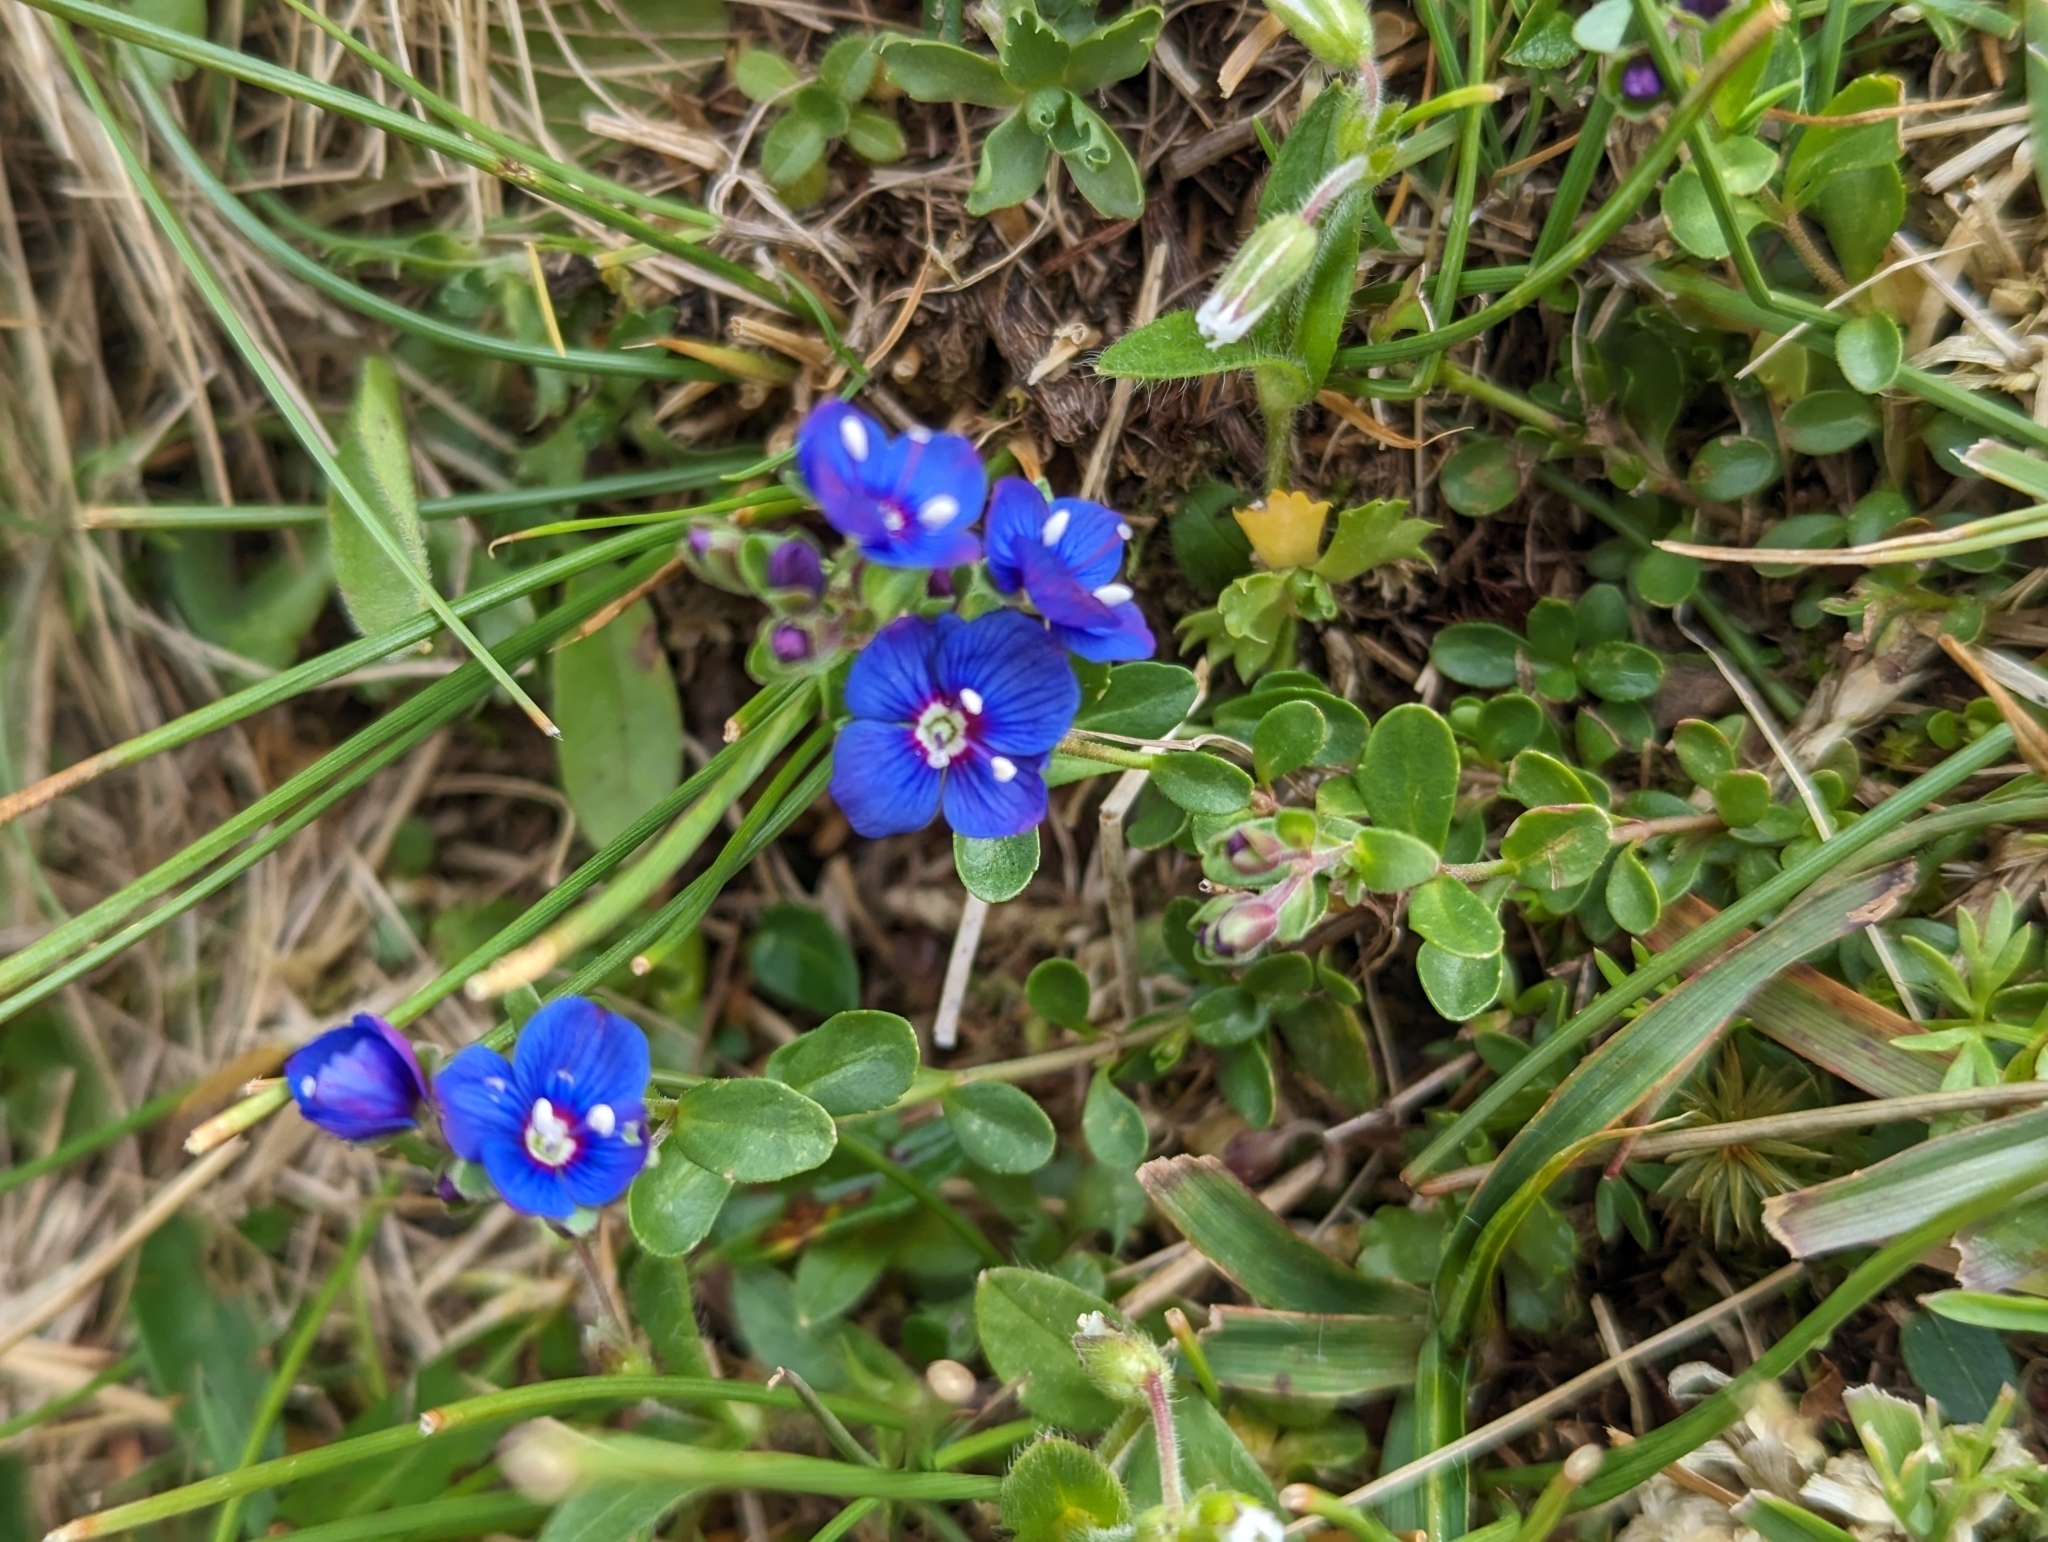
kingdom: Plantae
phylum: Tracheophyta
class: Magnoliopsida
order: Lamiales
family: Plantaginaceae
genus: Veronica
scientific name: Veronica fruticans
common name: Rock speedwell
